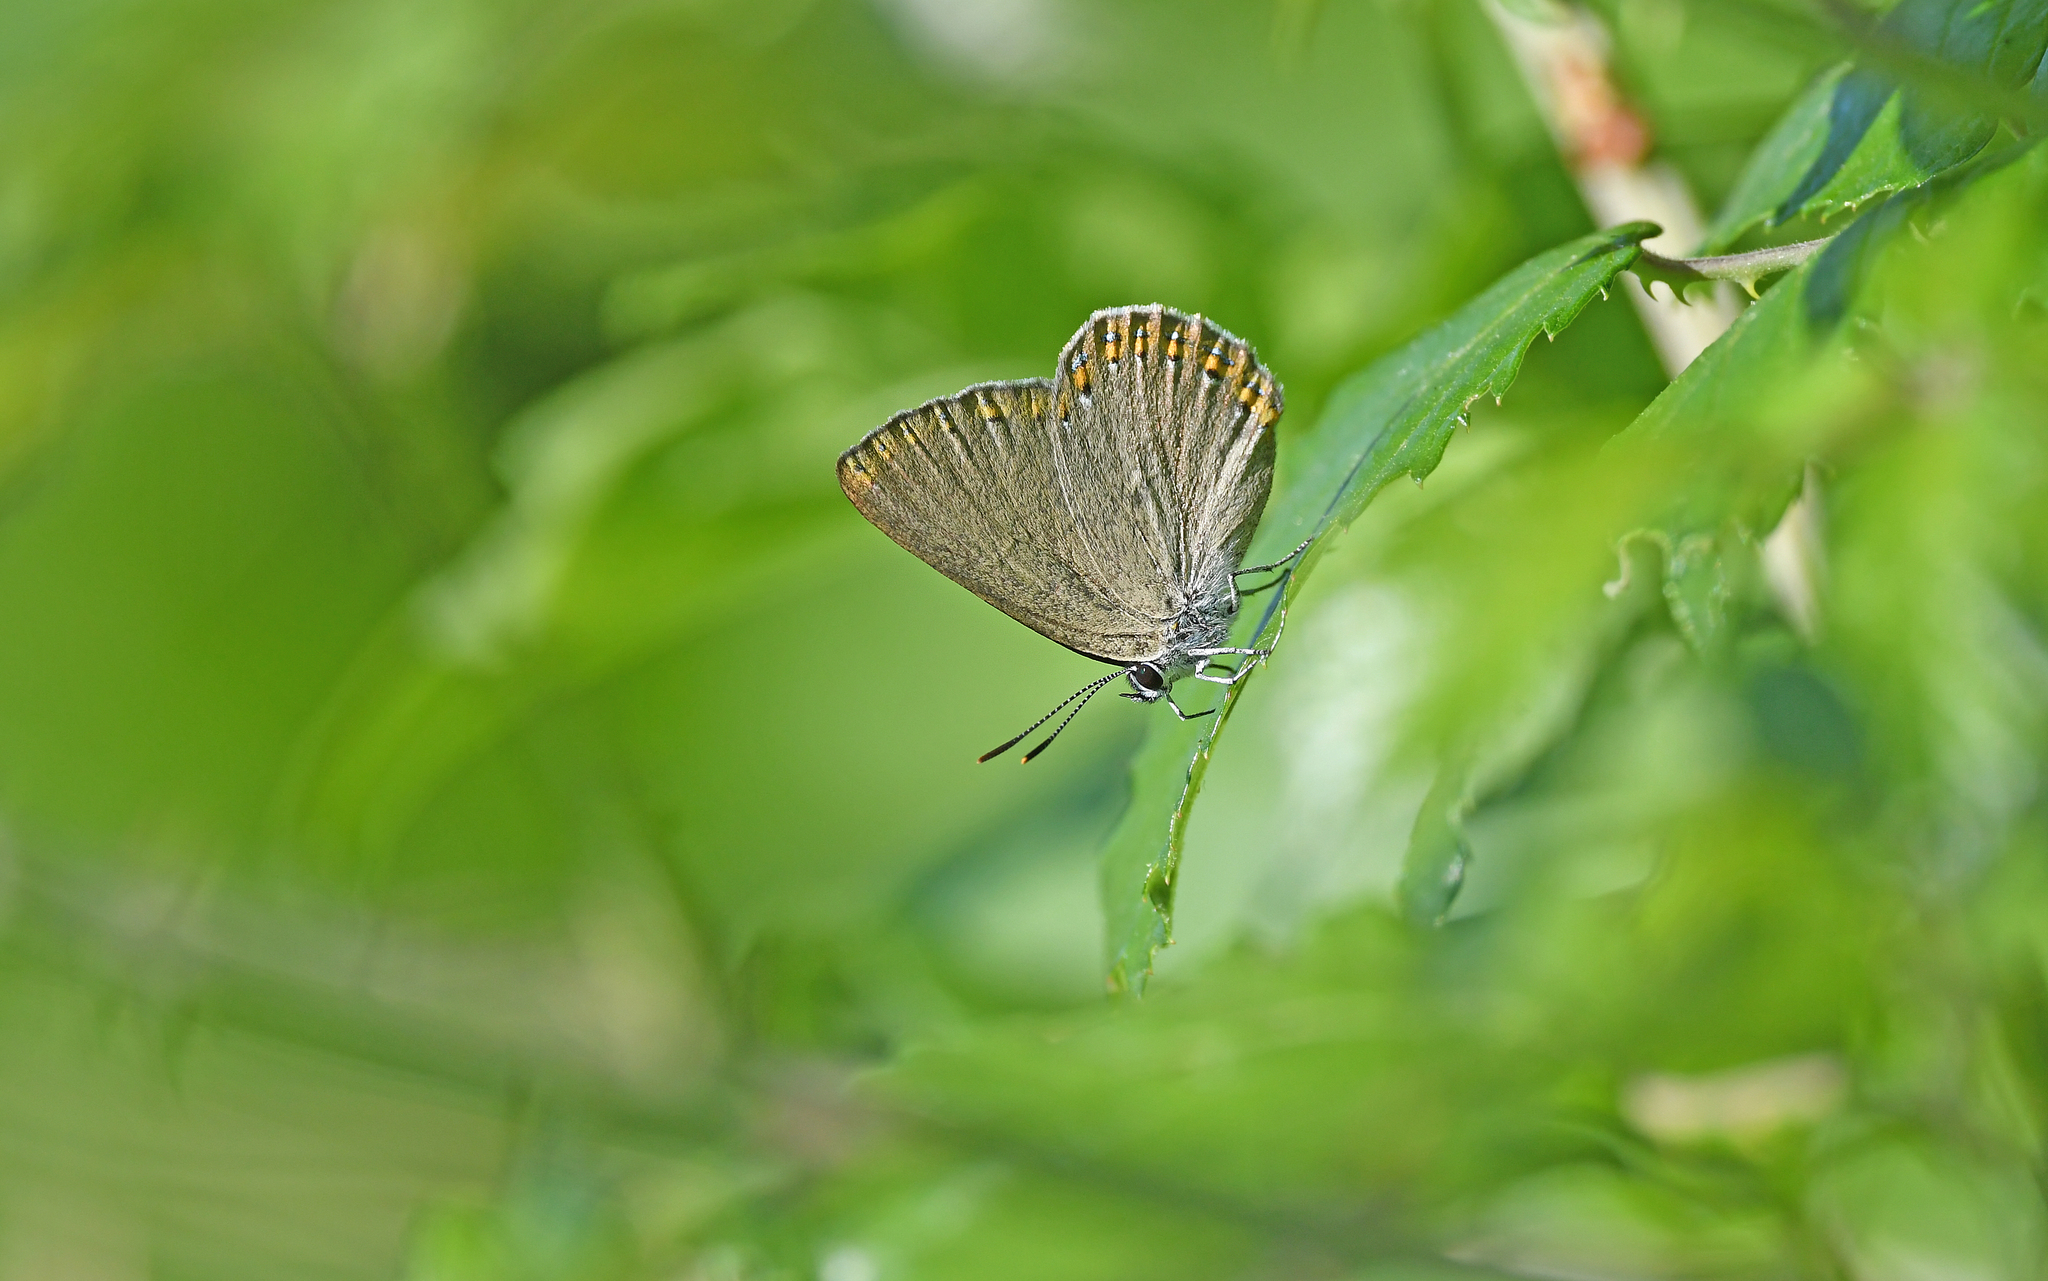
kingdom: Animalia
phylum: Arthropoda
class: Insecta
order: Lepidoptera
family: Lycaenidae
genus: Laeosopis
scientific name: Laeosopis roboris
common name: Spanish purple hairstreak
